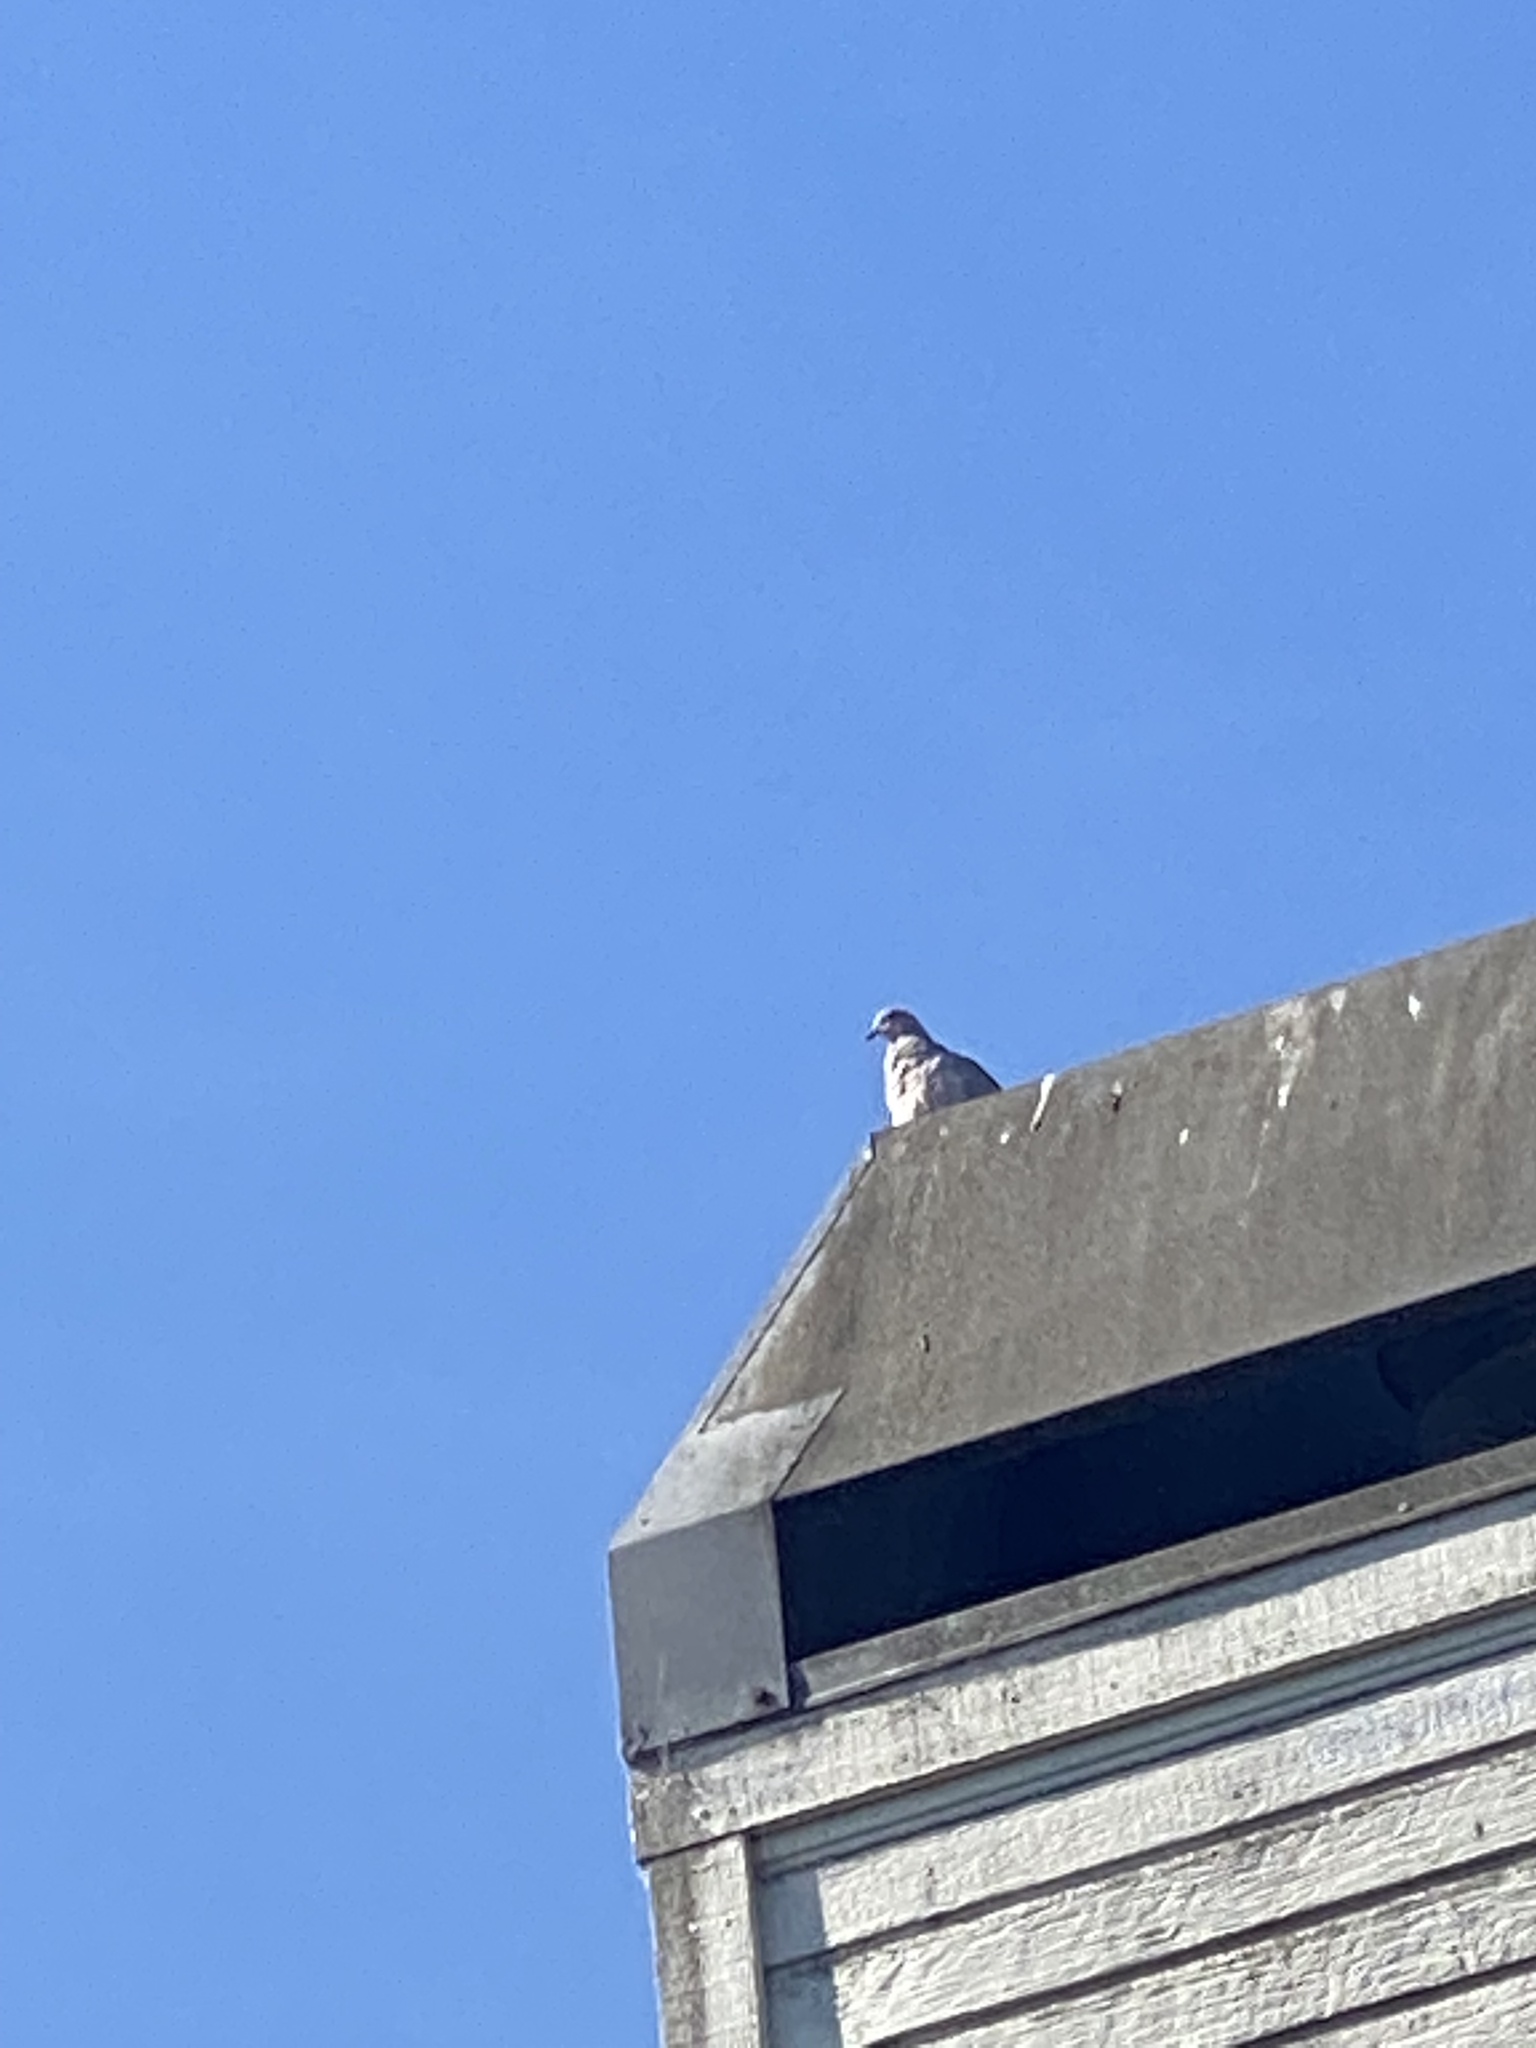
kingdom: Animalia
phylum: Chordata
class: Aves
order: Columbiformes
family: Columbidae
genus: Zenaida
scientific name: Zenaida macroura
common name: Mourning dove
